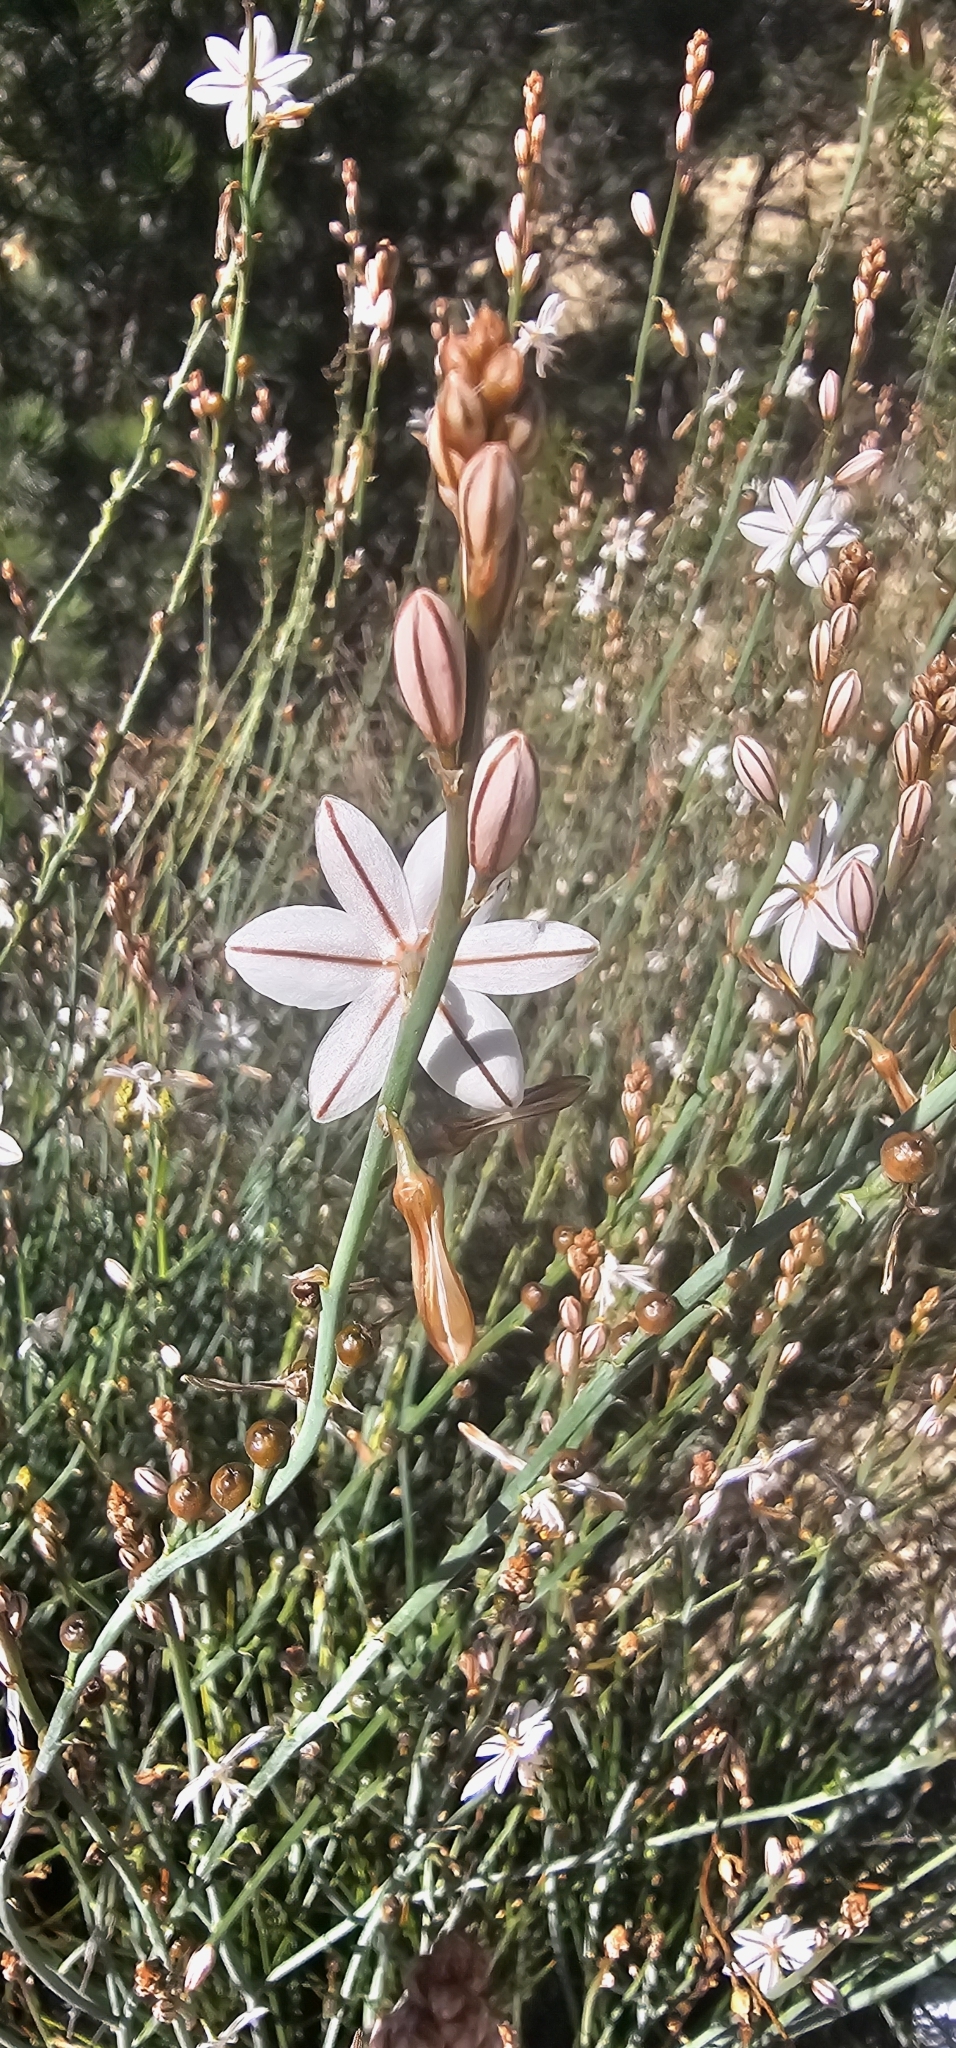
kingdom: Plantae
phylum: Tracheophyta
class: Liliopsida
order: Asparagales
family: Asphodelaceae
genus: Asphodelus
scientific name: Asphodelus fistulosus
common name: Onionweed
